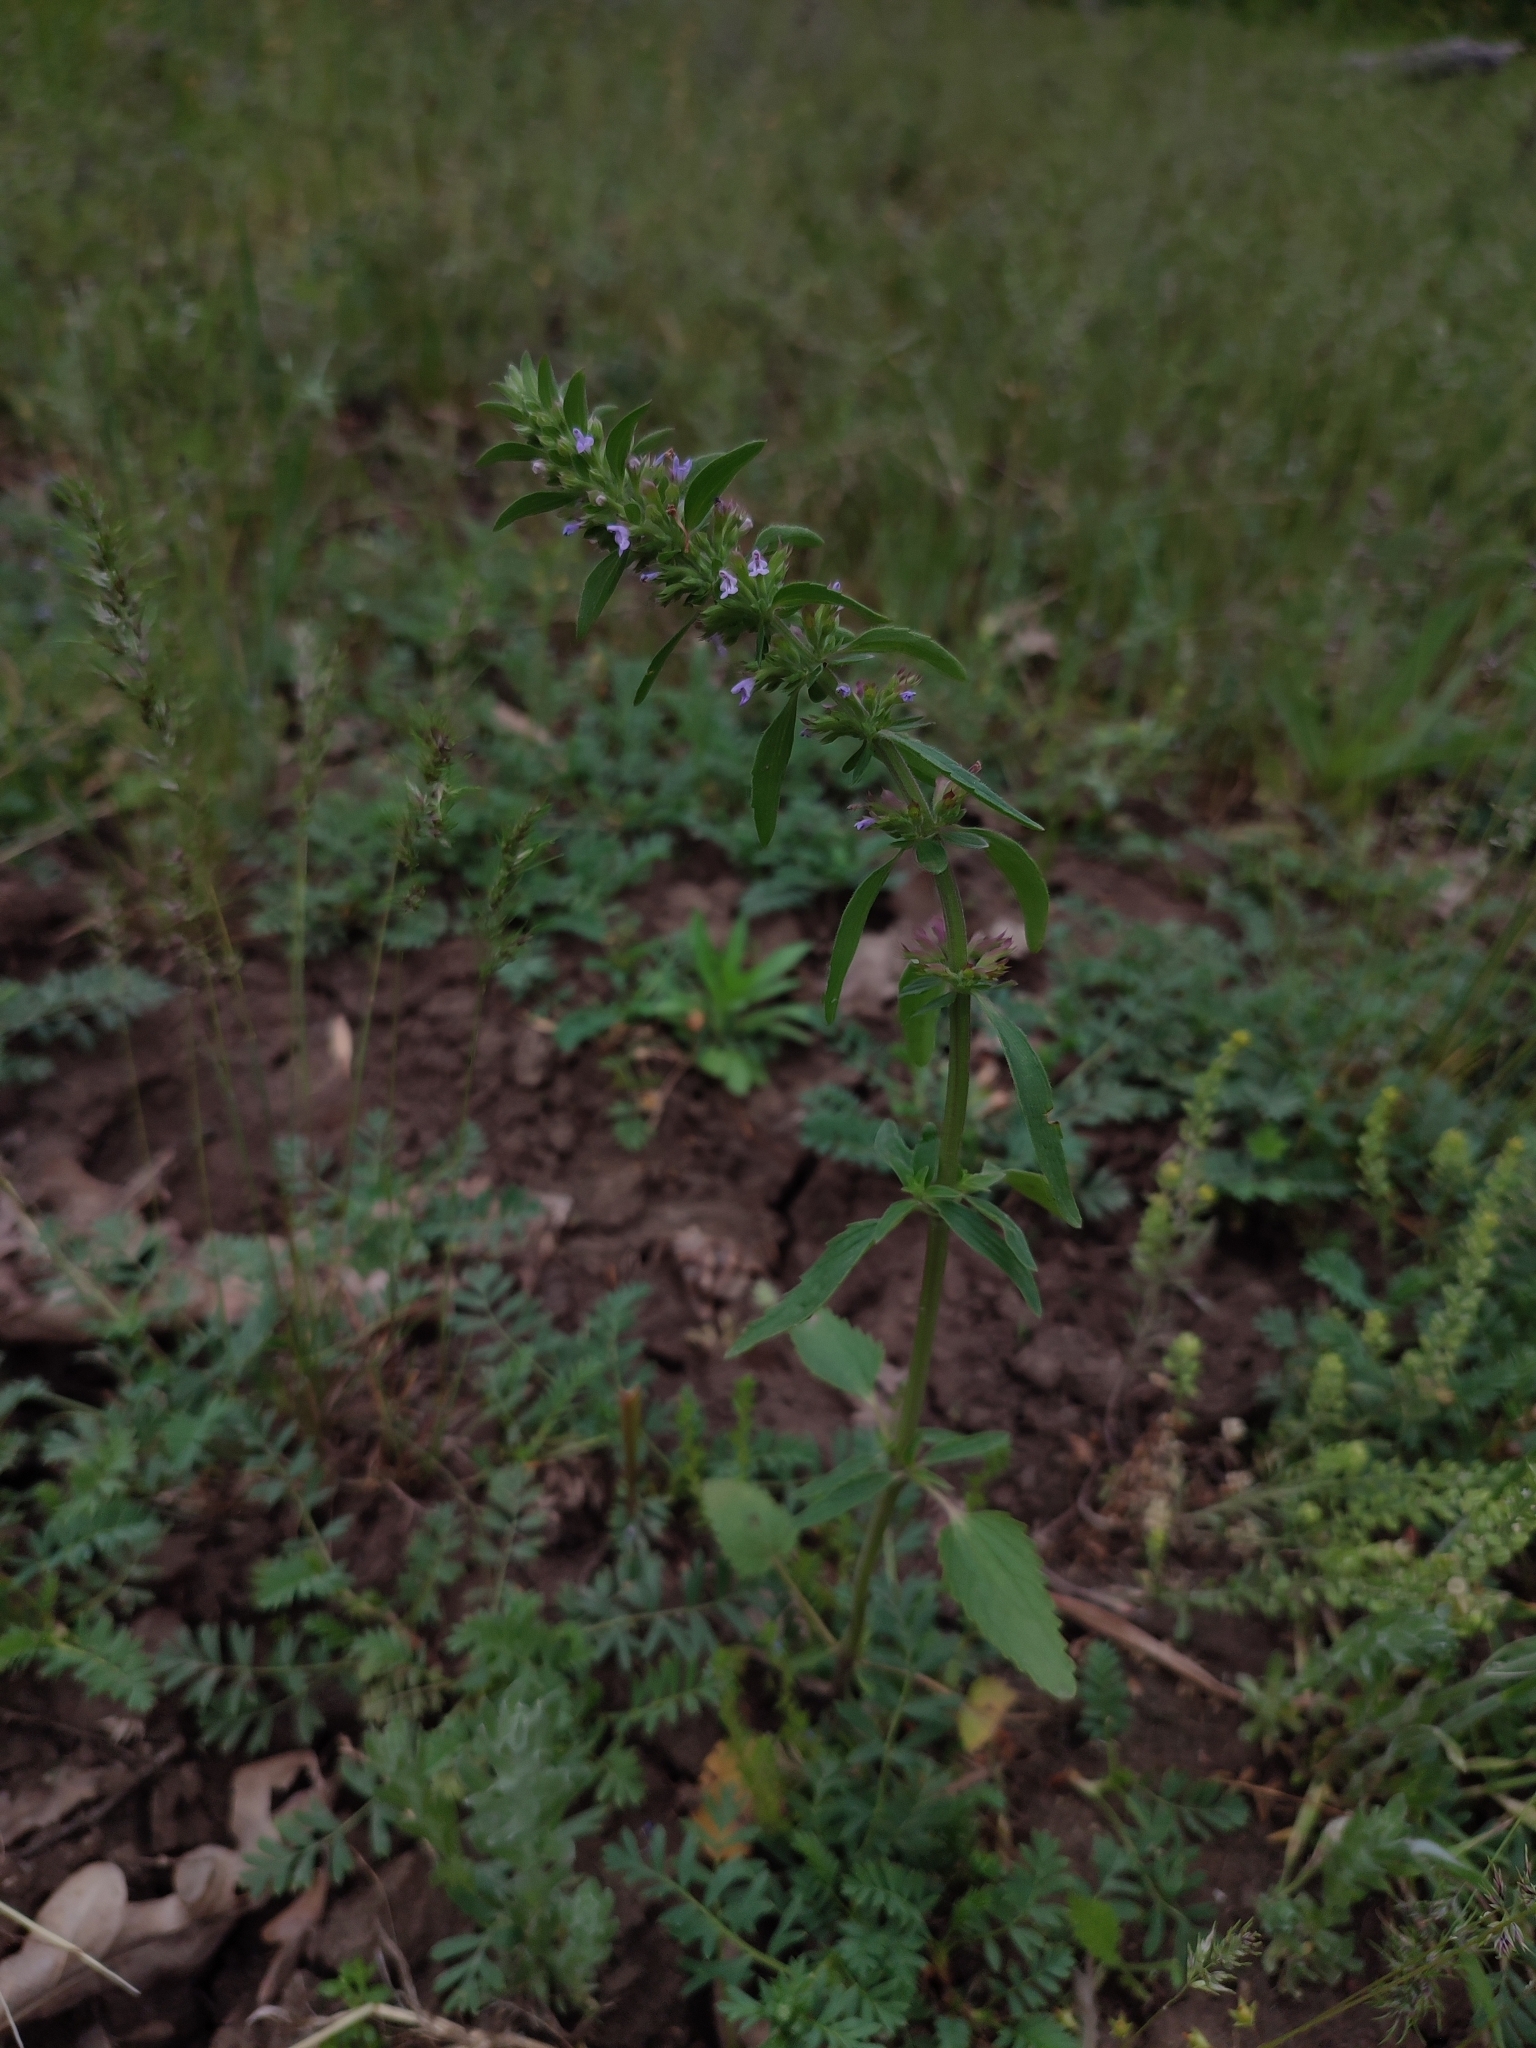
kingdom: Plantae
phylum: Tracheophyta
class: Magnoliopsida
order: Lamiales
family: Lamiaceae
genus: Dracocephalum
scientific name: Dracocephalum thymiflorum
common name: Thymeleaf dragonhead
